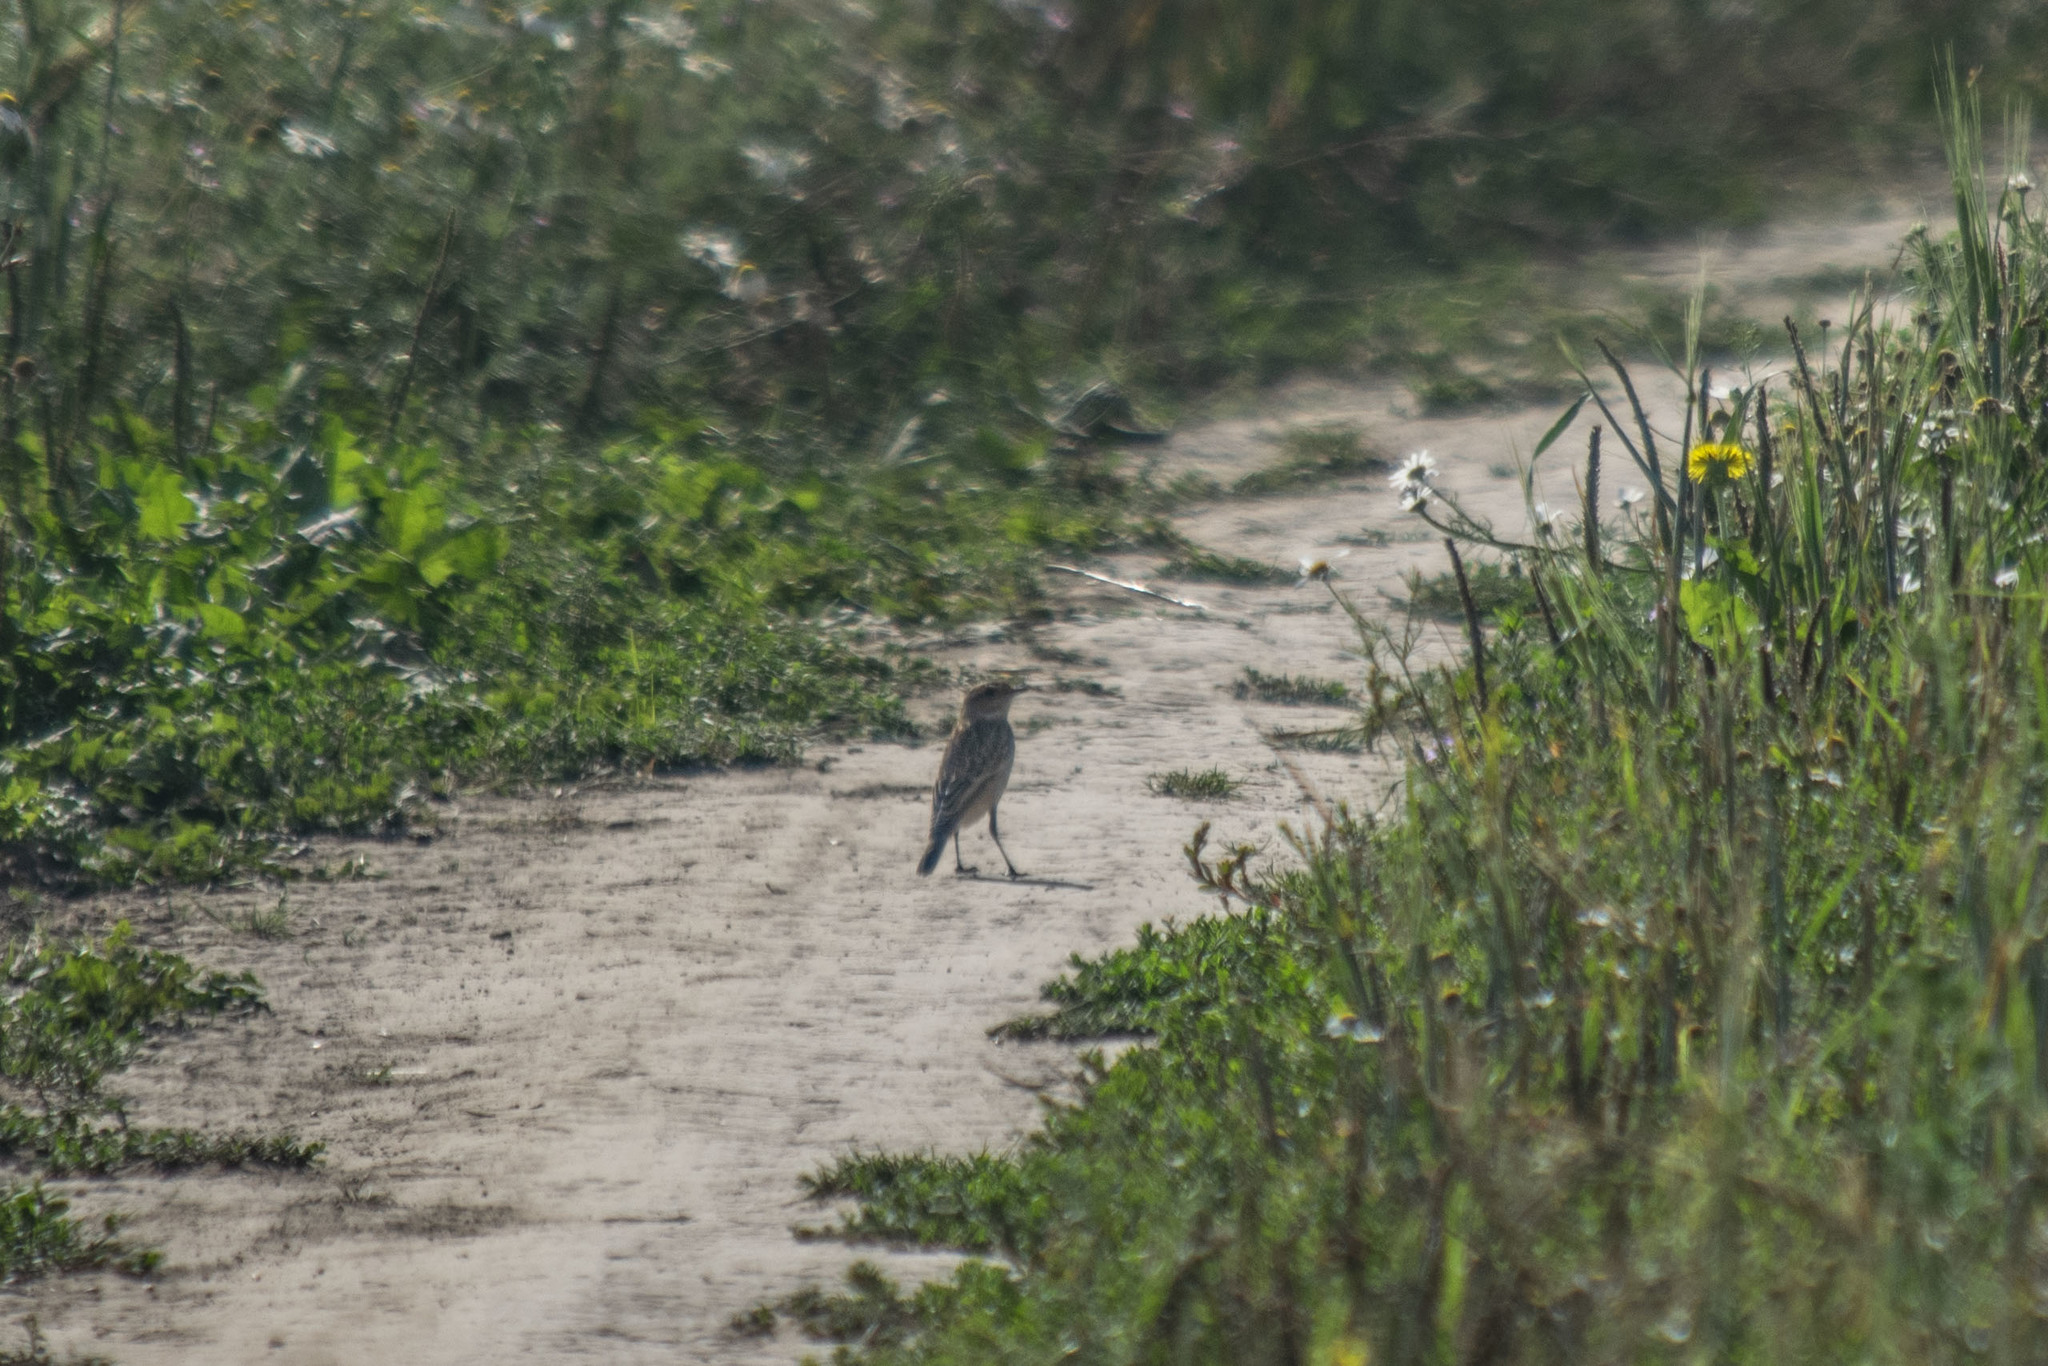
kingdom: Animalia
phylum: Chordata
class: Aves
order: Passeriformes
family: Muscicapidae
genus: Saxicola
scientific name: Saxicola maurus
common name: Siberian stonechat
